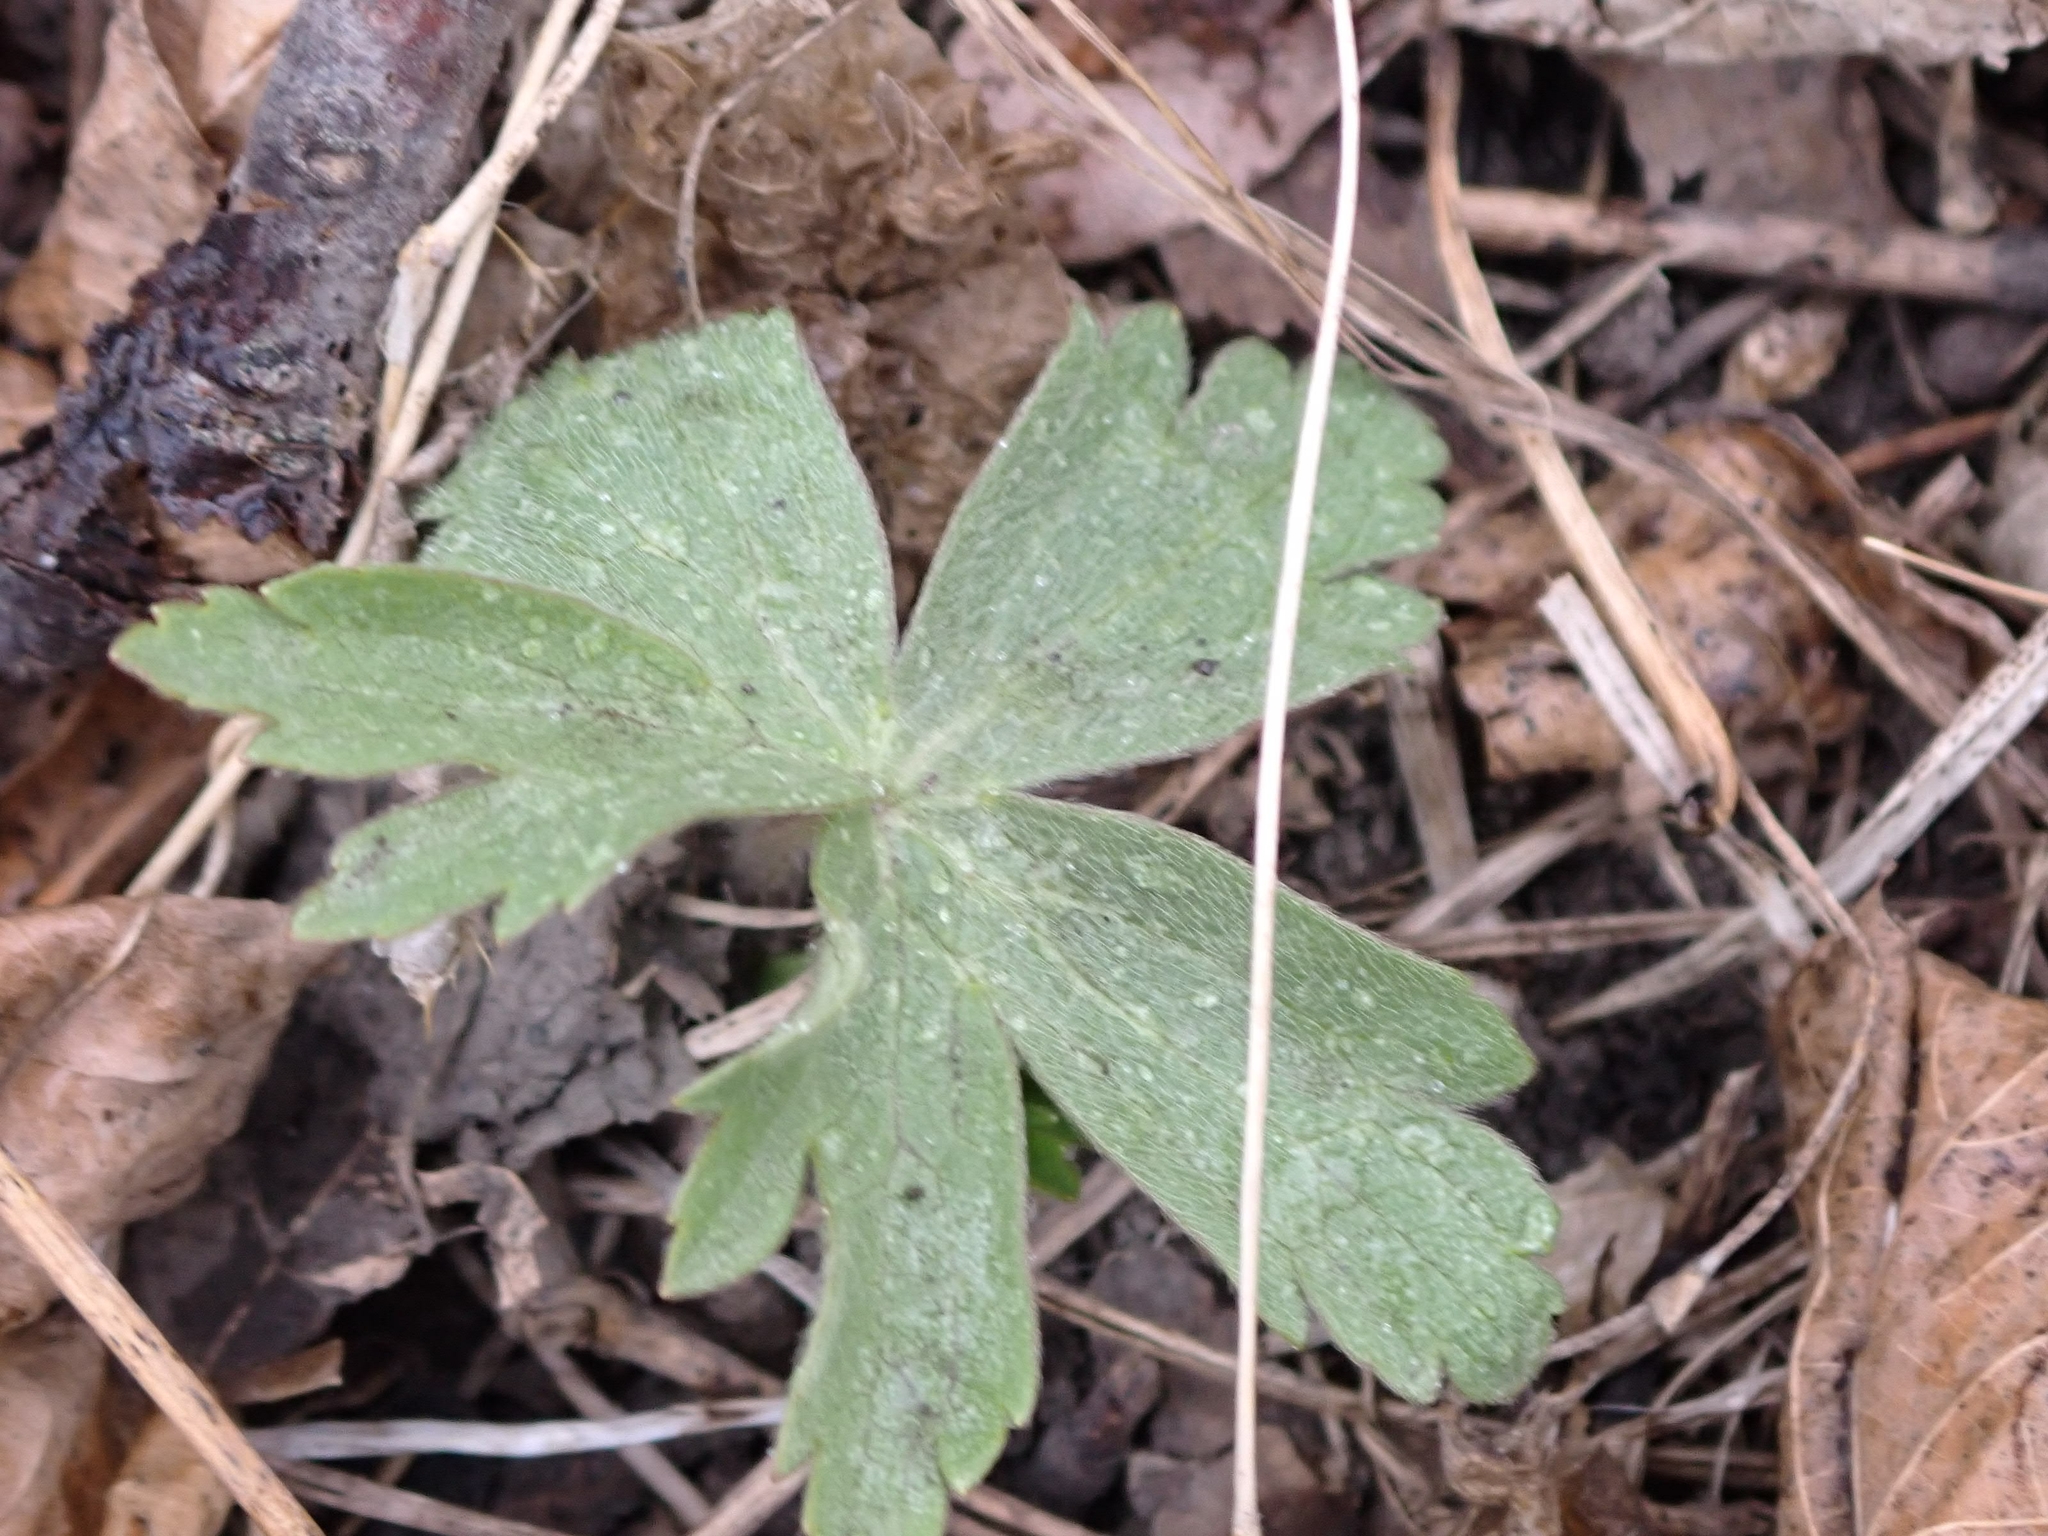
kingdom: Plantae
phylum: Tracheophyta
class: Magnoliopsida
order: Ranunculales
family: Ranunculaceae
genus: Anemonastrum
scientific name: Anemonastrum canadense
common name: Canada anemone
